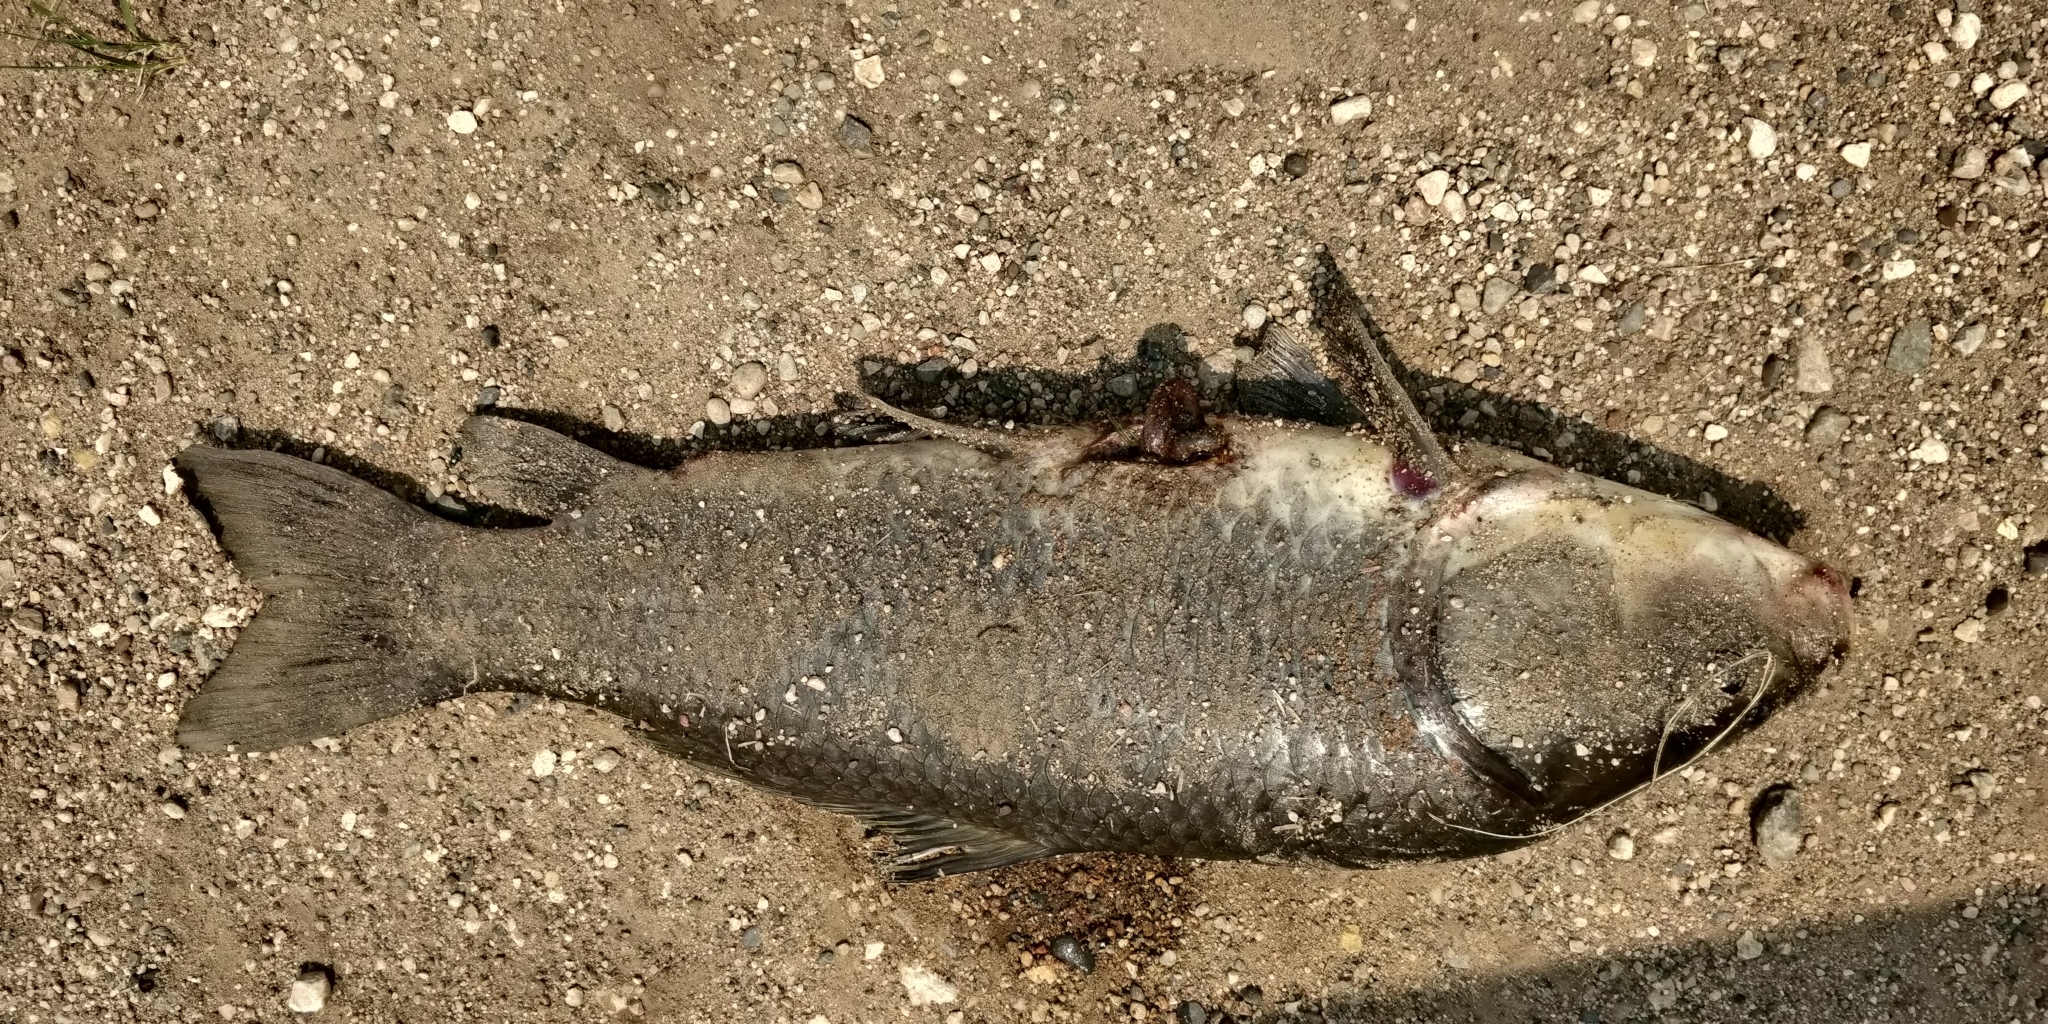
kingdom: Animalia
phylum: Chordata
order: Cypriniformes
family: Catostomidae
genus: Ictiobus
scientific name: Ictiobus cyprinellus
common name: Bigmouth buffalo
